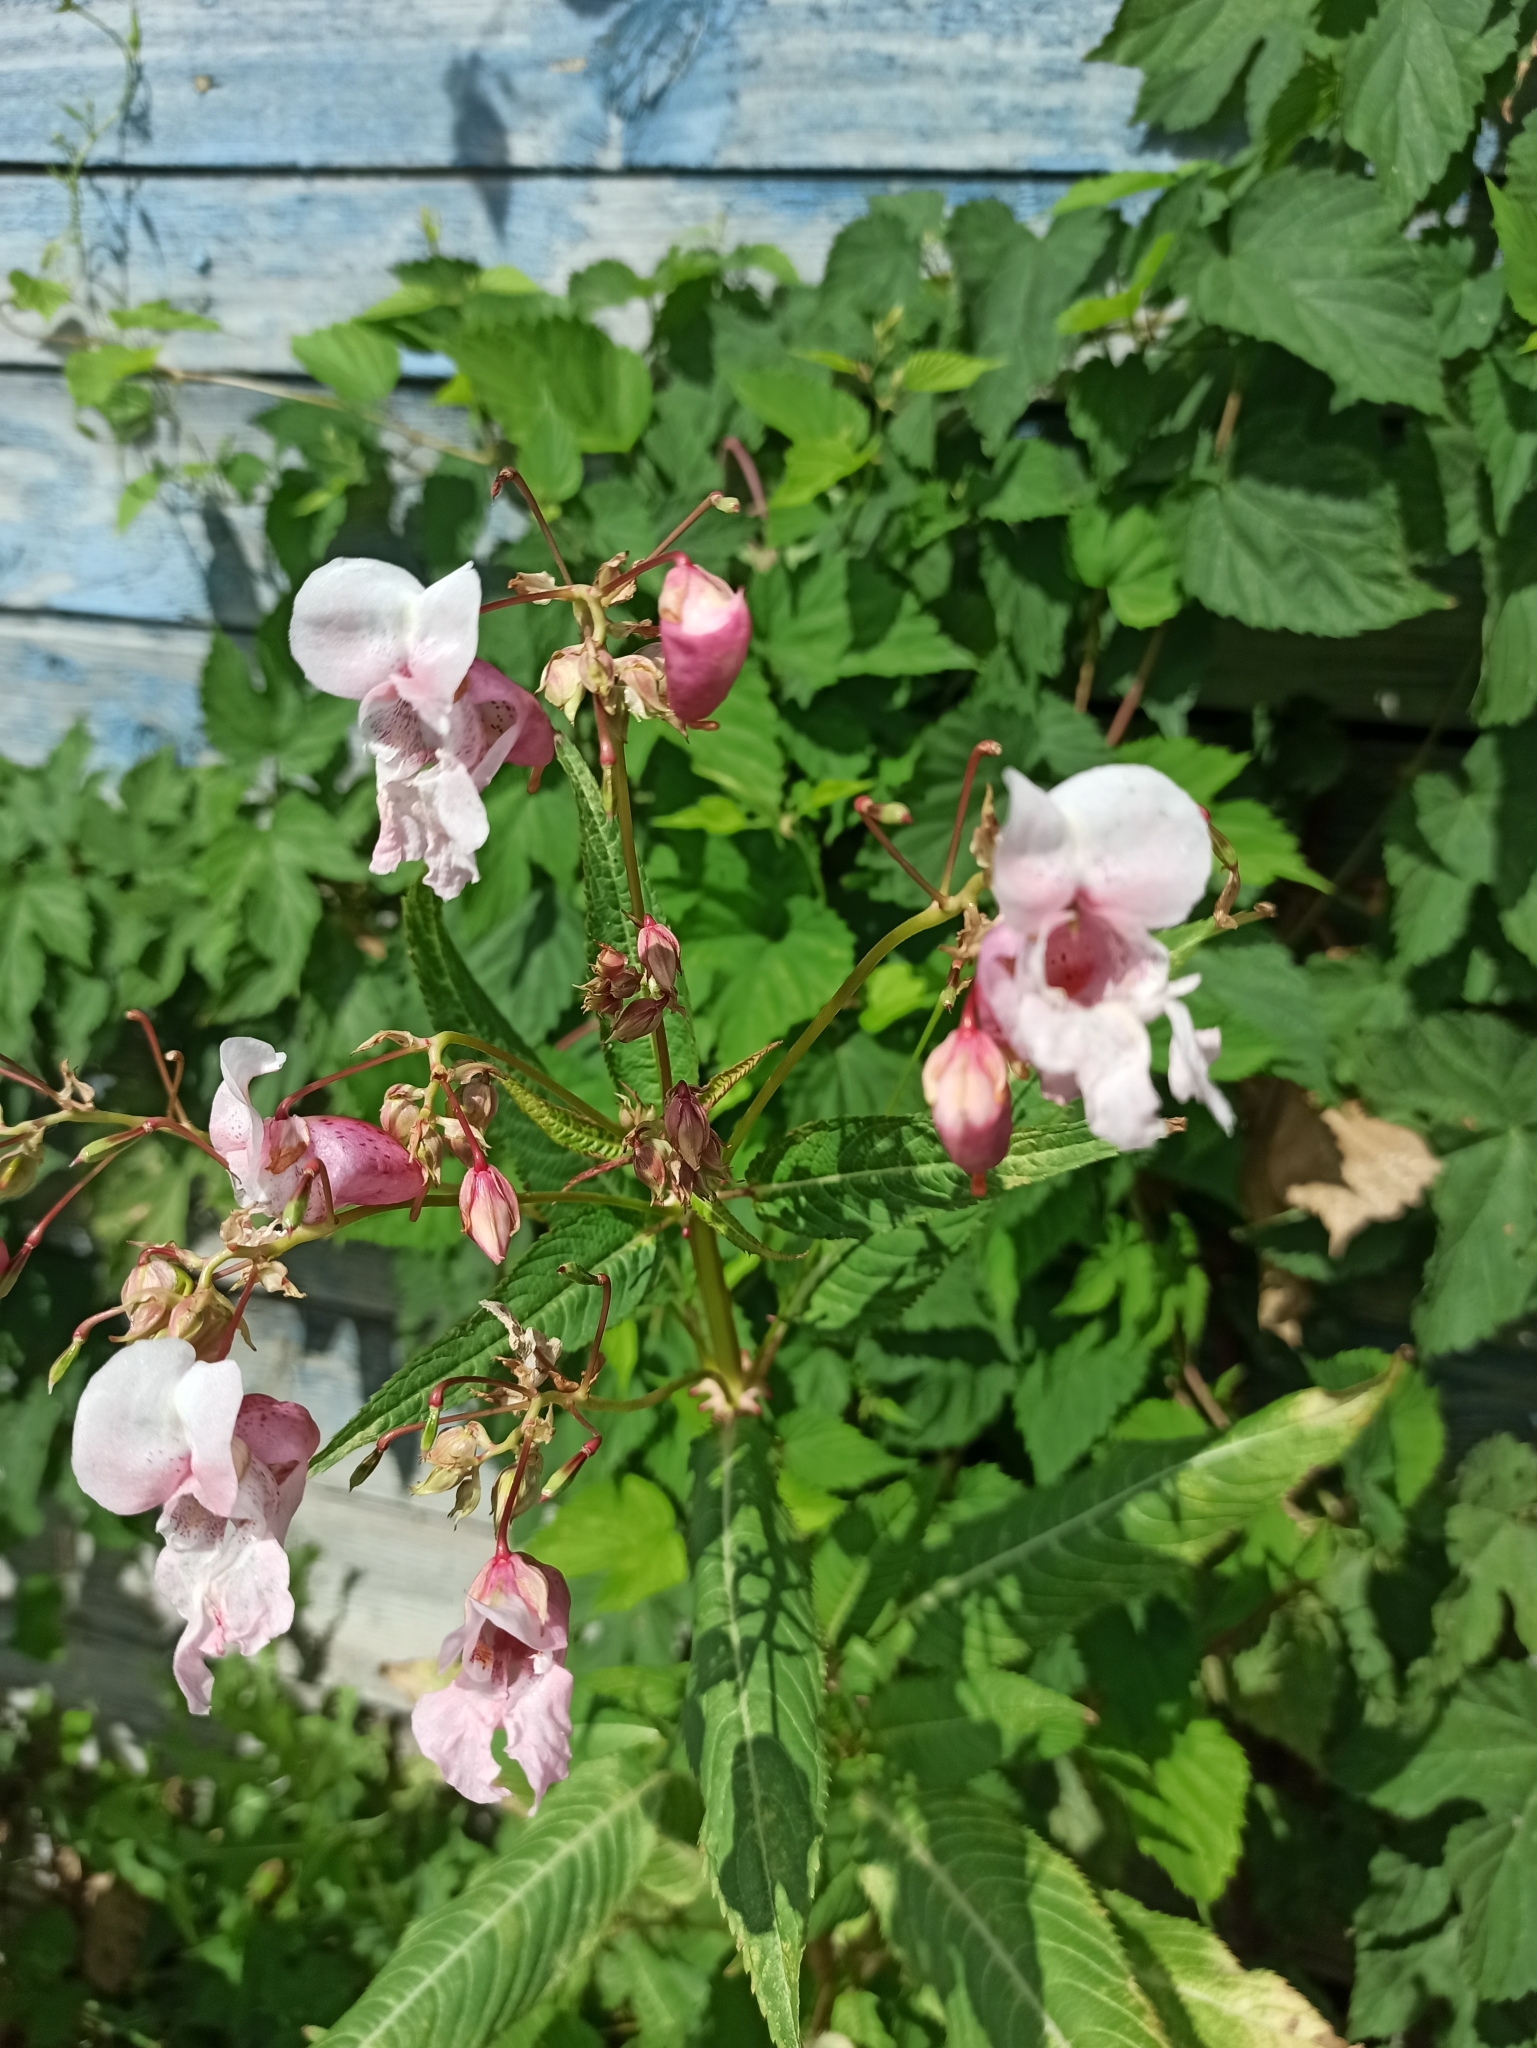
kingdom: Plantae
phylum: Tracheophyta
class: Magnoliopsida
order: Ericales
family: Balsaminaceae
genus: Impatiens
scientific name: Impatiens glandulifera
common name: Himalayan balsam
